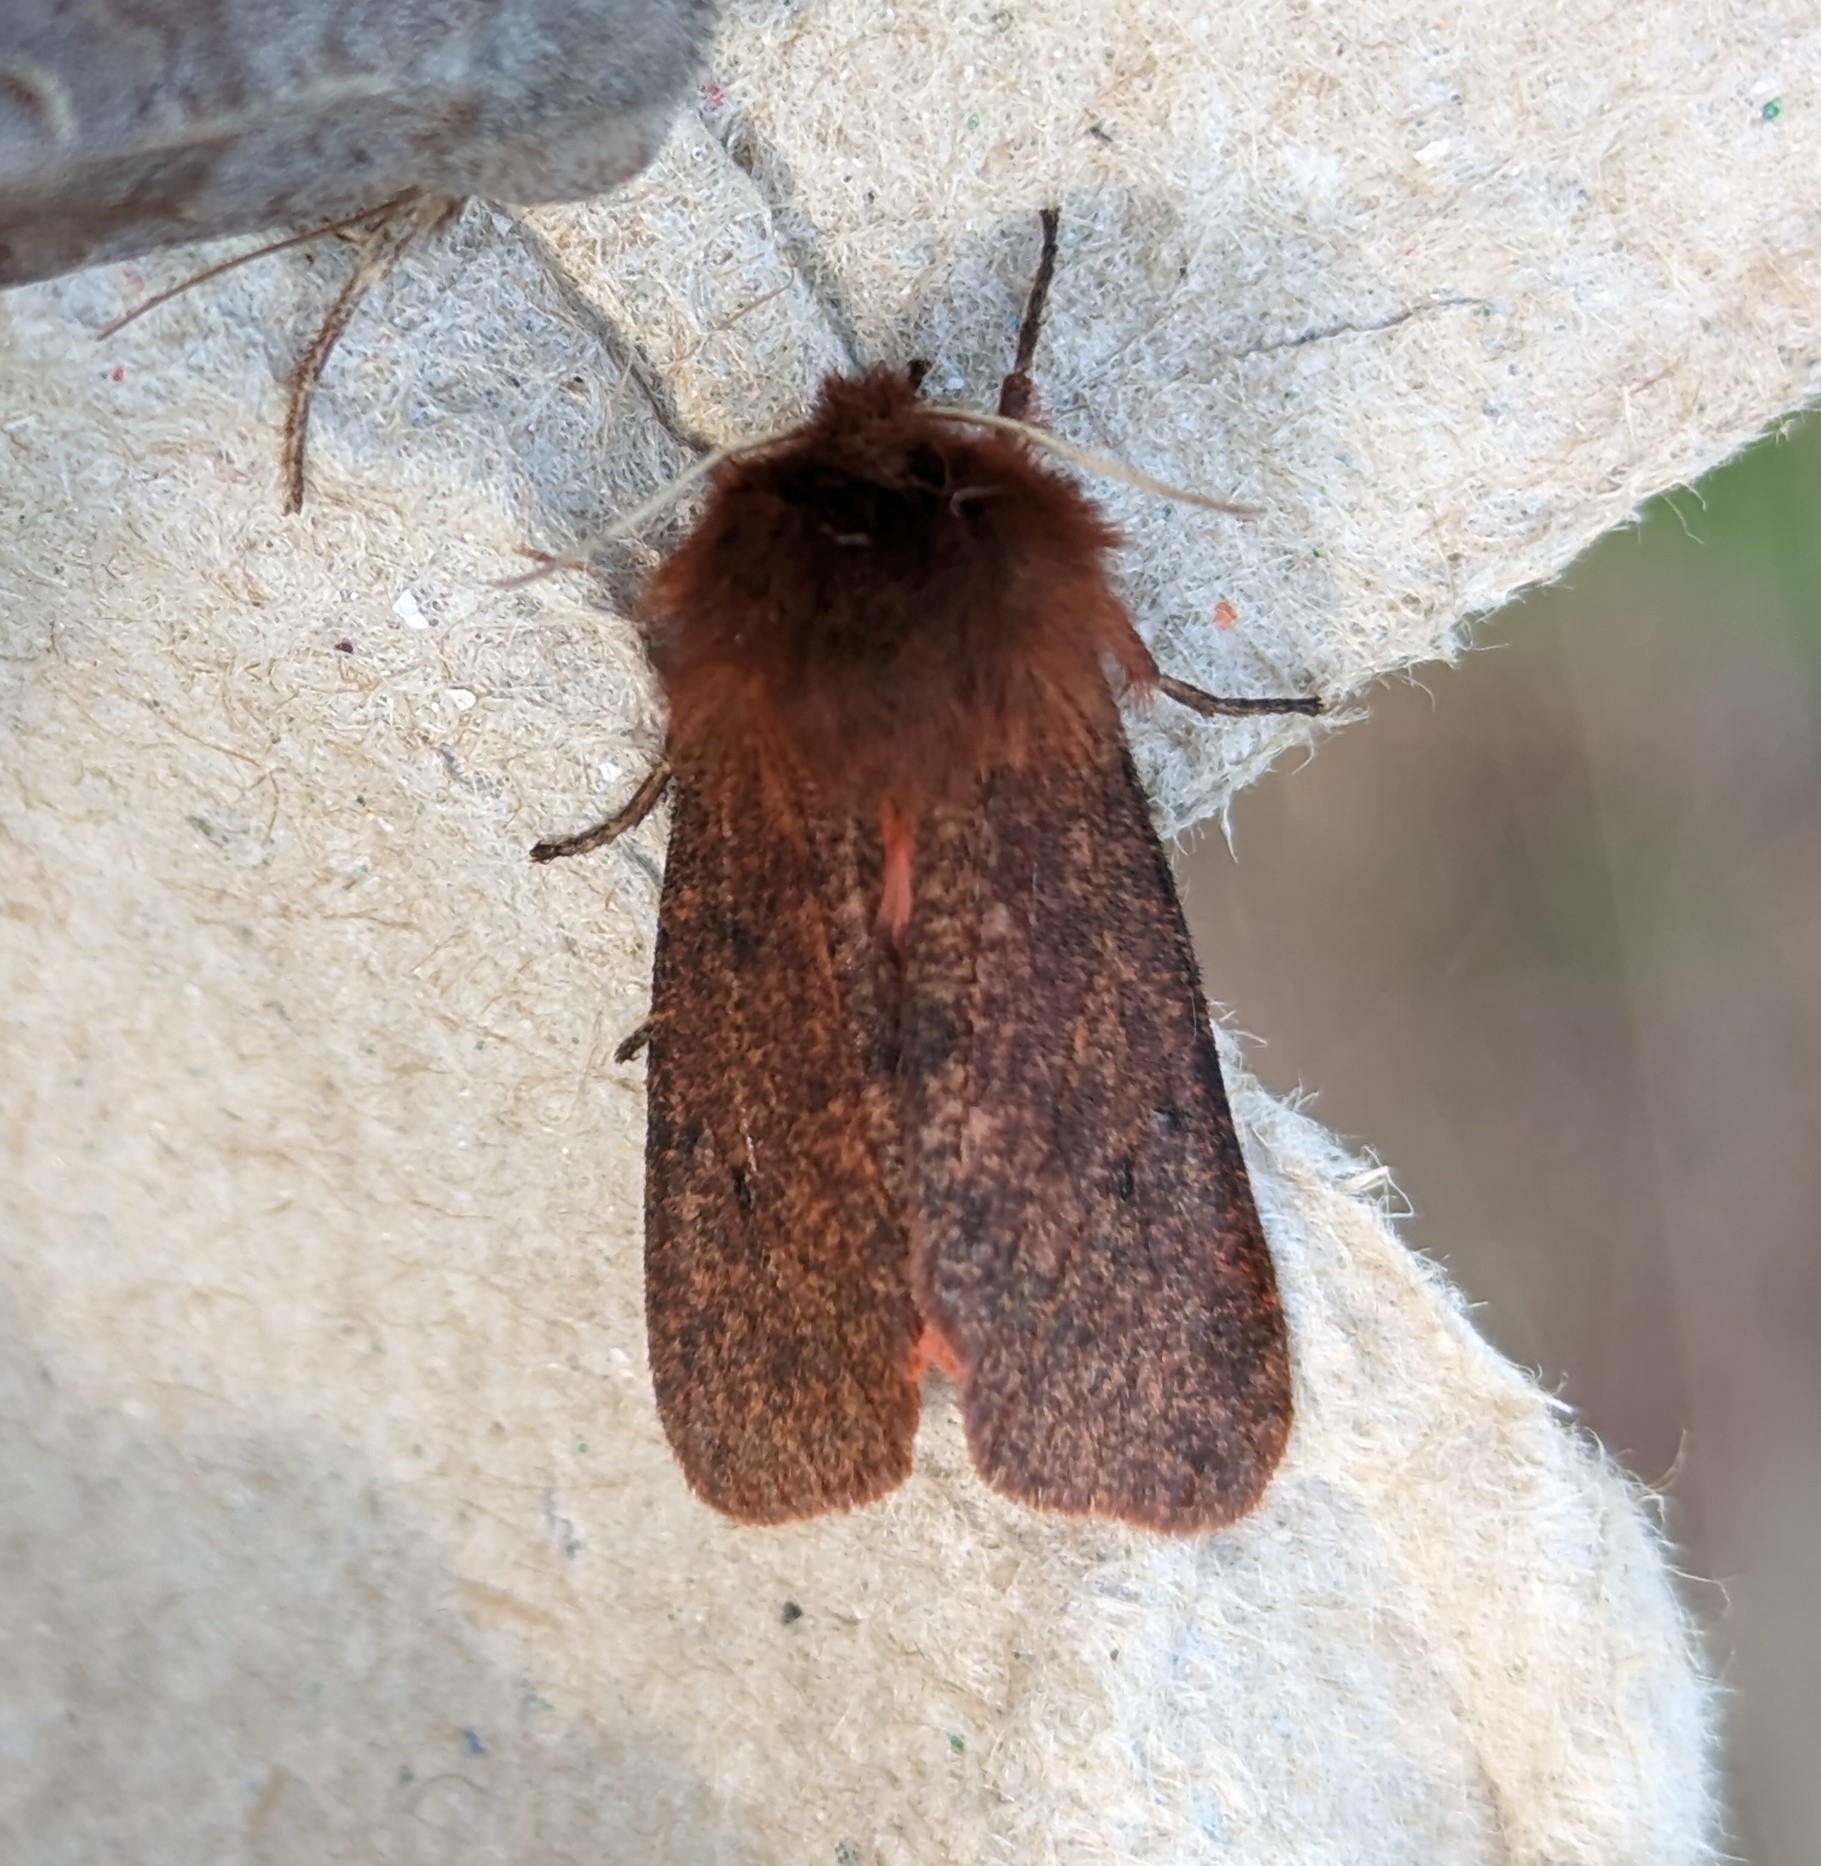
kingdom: Animalia
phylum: Arthropoda
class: Insecta
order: Lepidoptera
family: Erebidae
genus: Phragmatobia
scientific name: Phragmatobia assimilans
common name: Large ruby tiger moth
